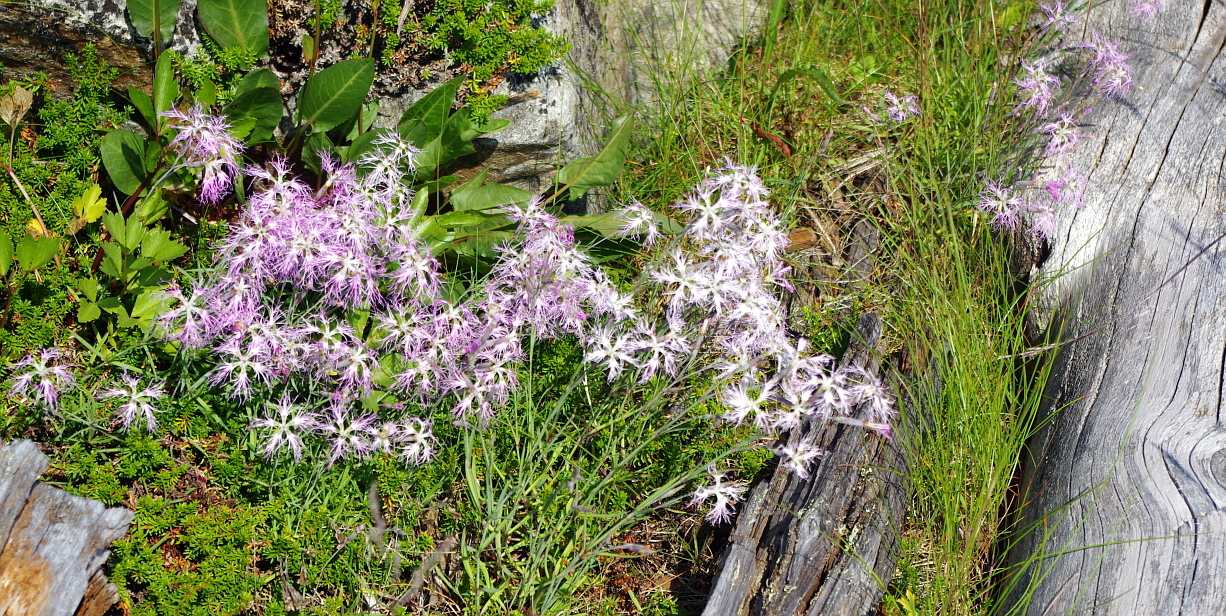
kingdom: Plantae
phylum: Tracheophyta
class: Magnoliopsida
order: Caryophyllales
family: Caryophyllaceae
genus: Dianthus
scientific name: Dianthus superbus
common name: Fringed pink
